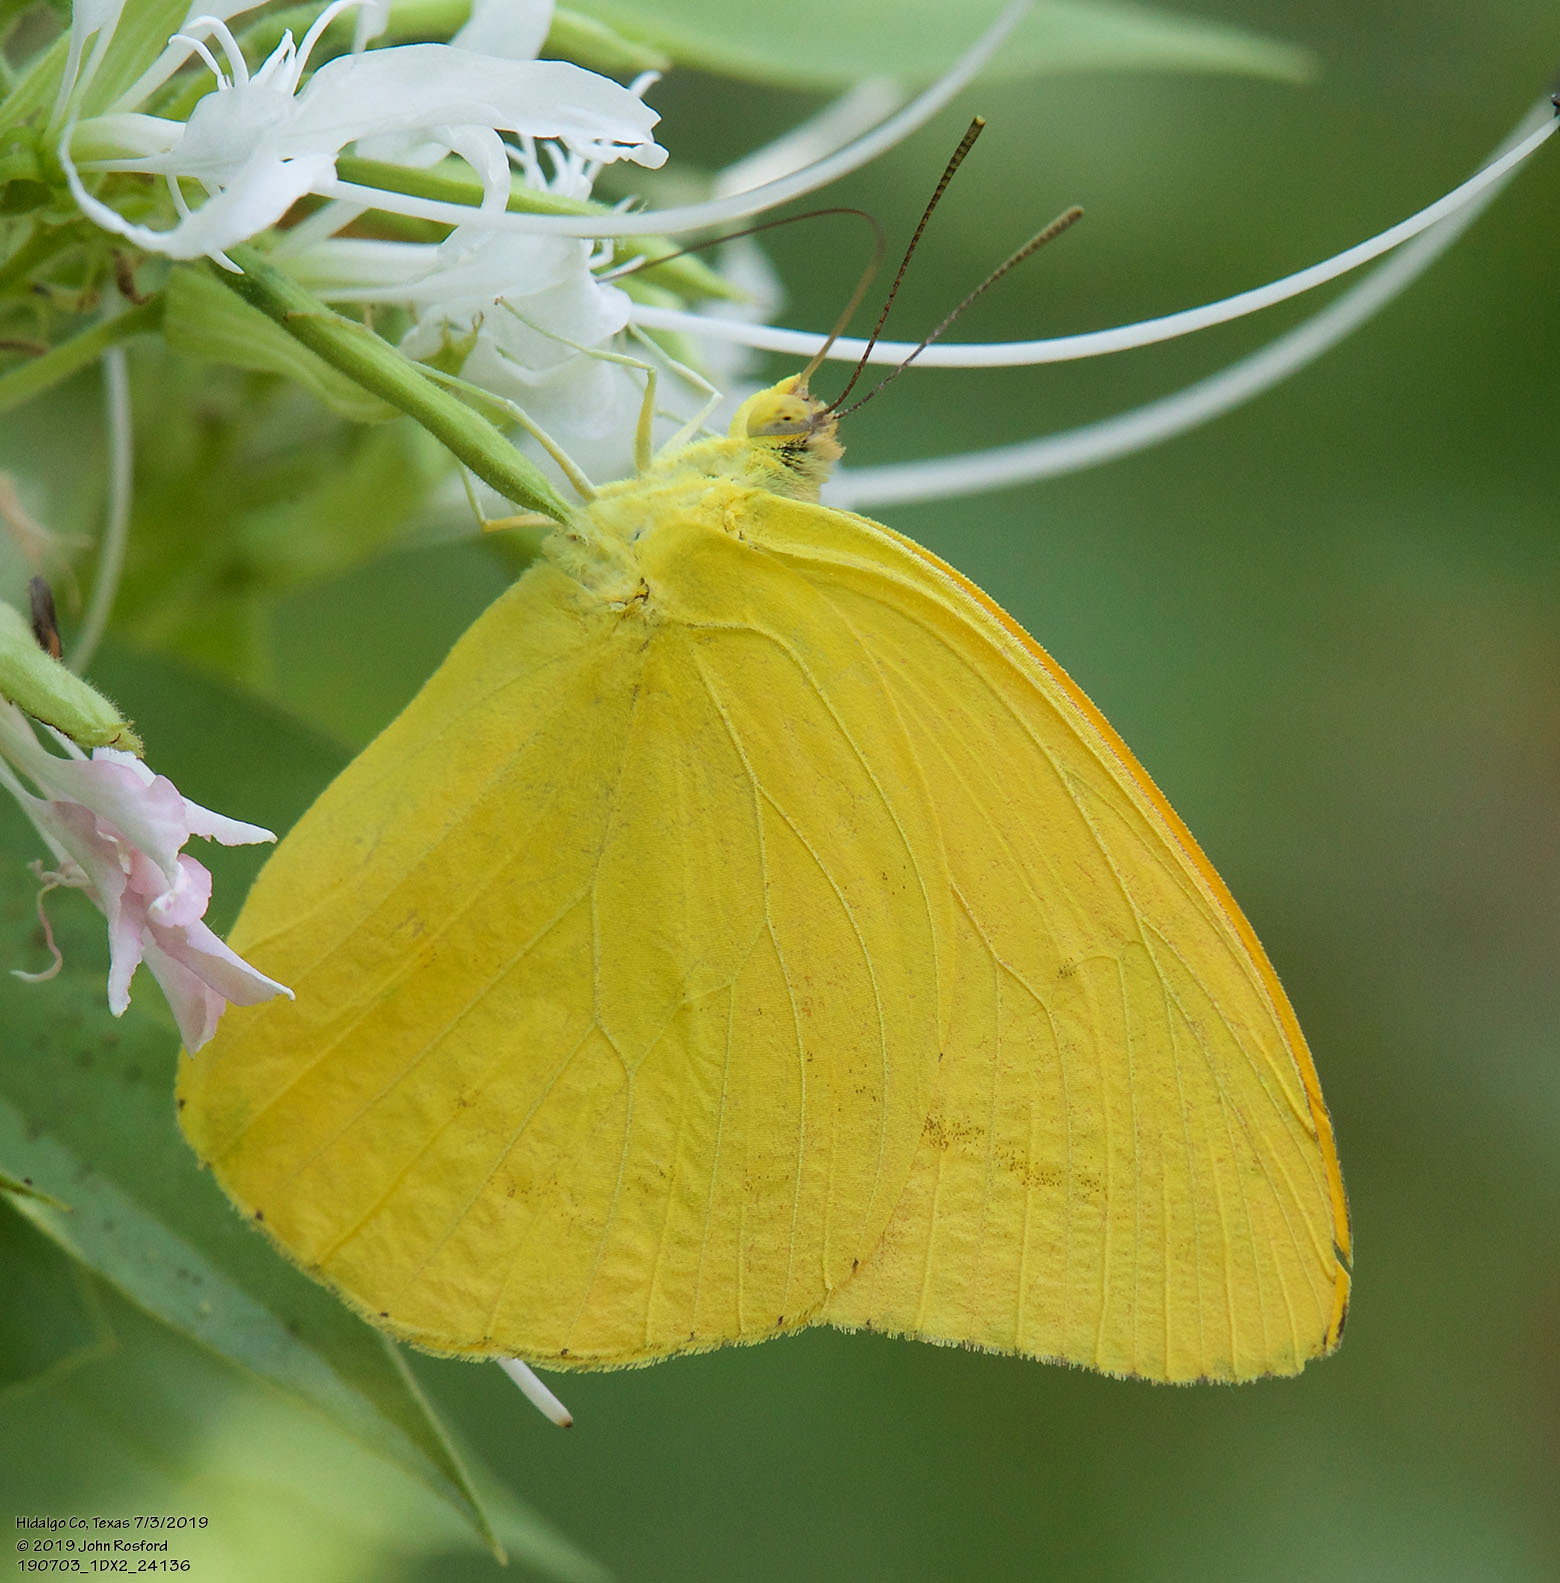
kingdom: Animalia
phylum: Arthropoda
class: Insecta
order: Lepidoptera
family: Pieridae
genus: Phoebis
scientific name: Phoebis agarithe
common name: Large orange sulphur
